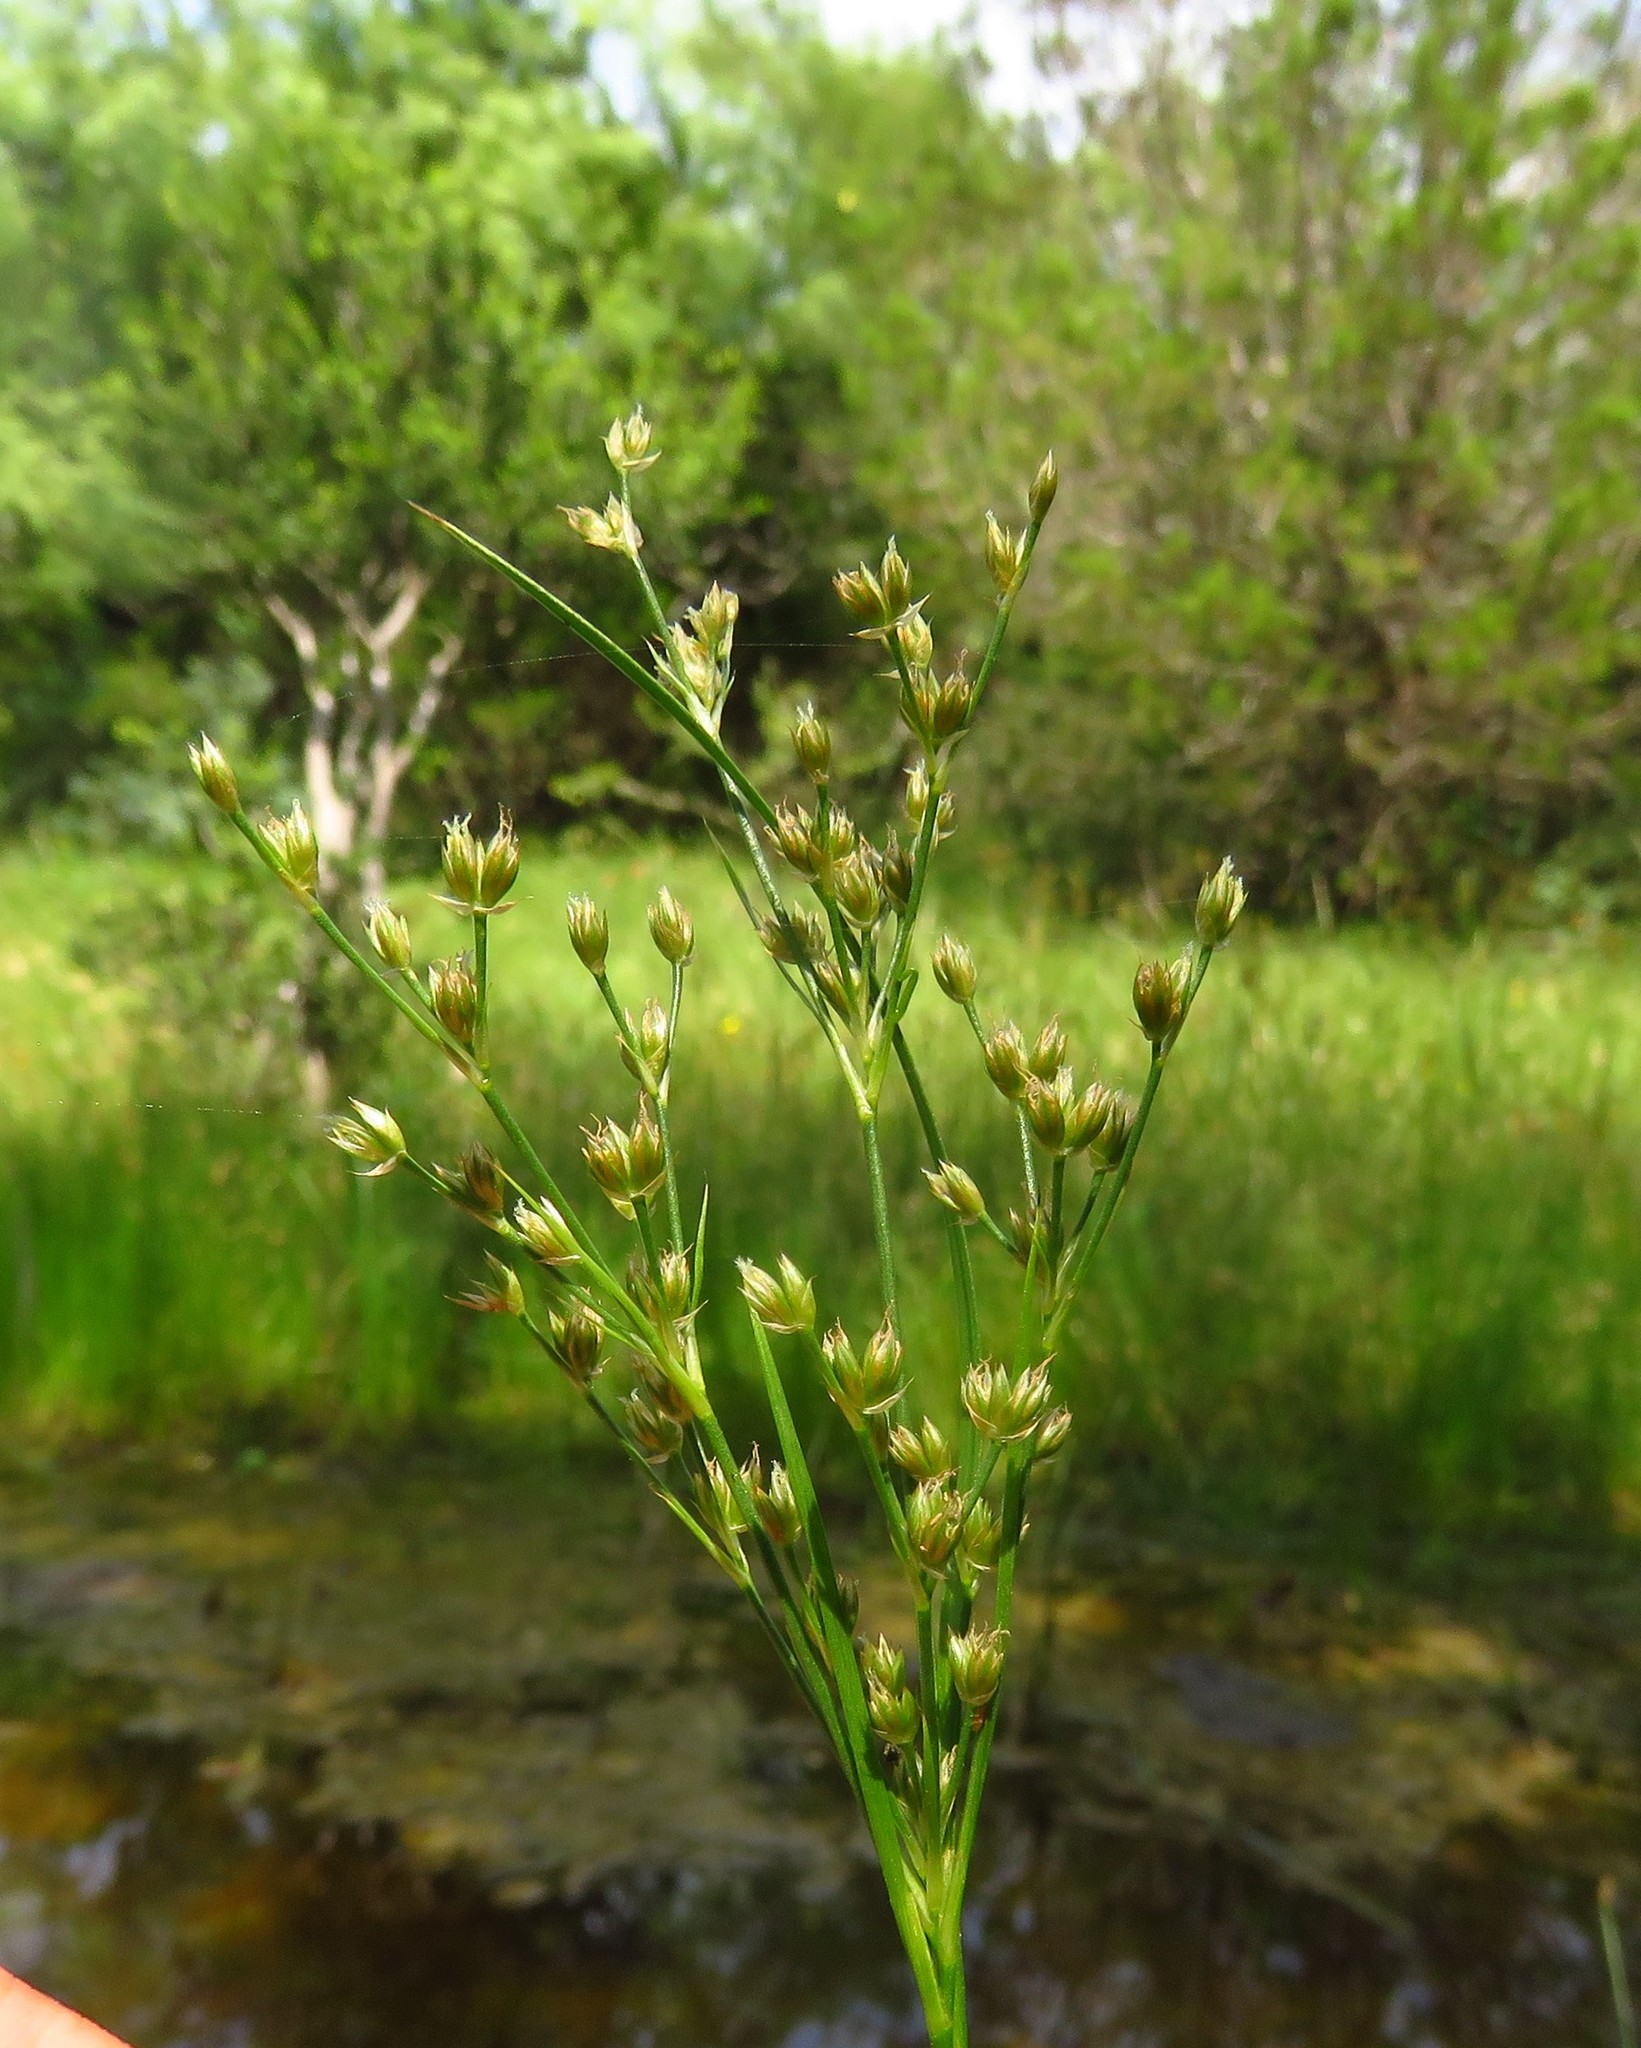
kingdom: Plantae
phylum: Tracheophyta
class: Liliopsida
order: Poales
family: Juncaceae
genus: Juncus
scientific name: Juncus marginatus
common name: Grass-leaf rush
